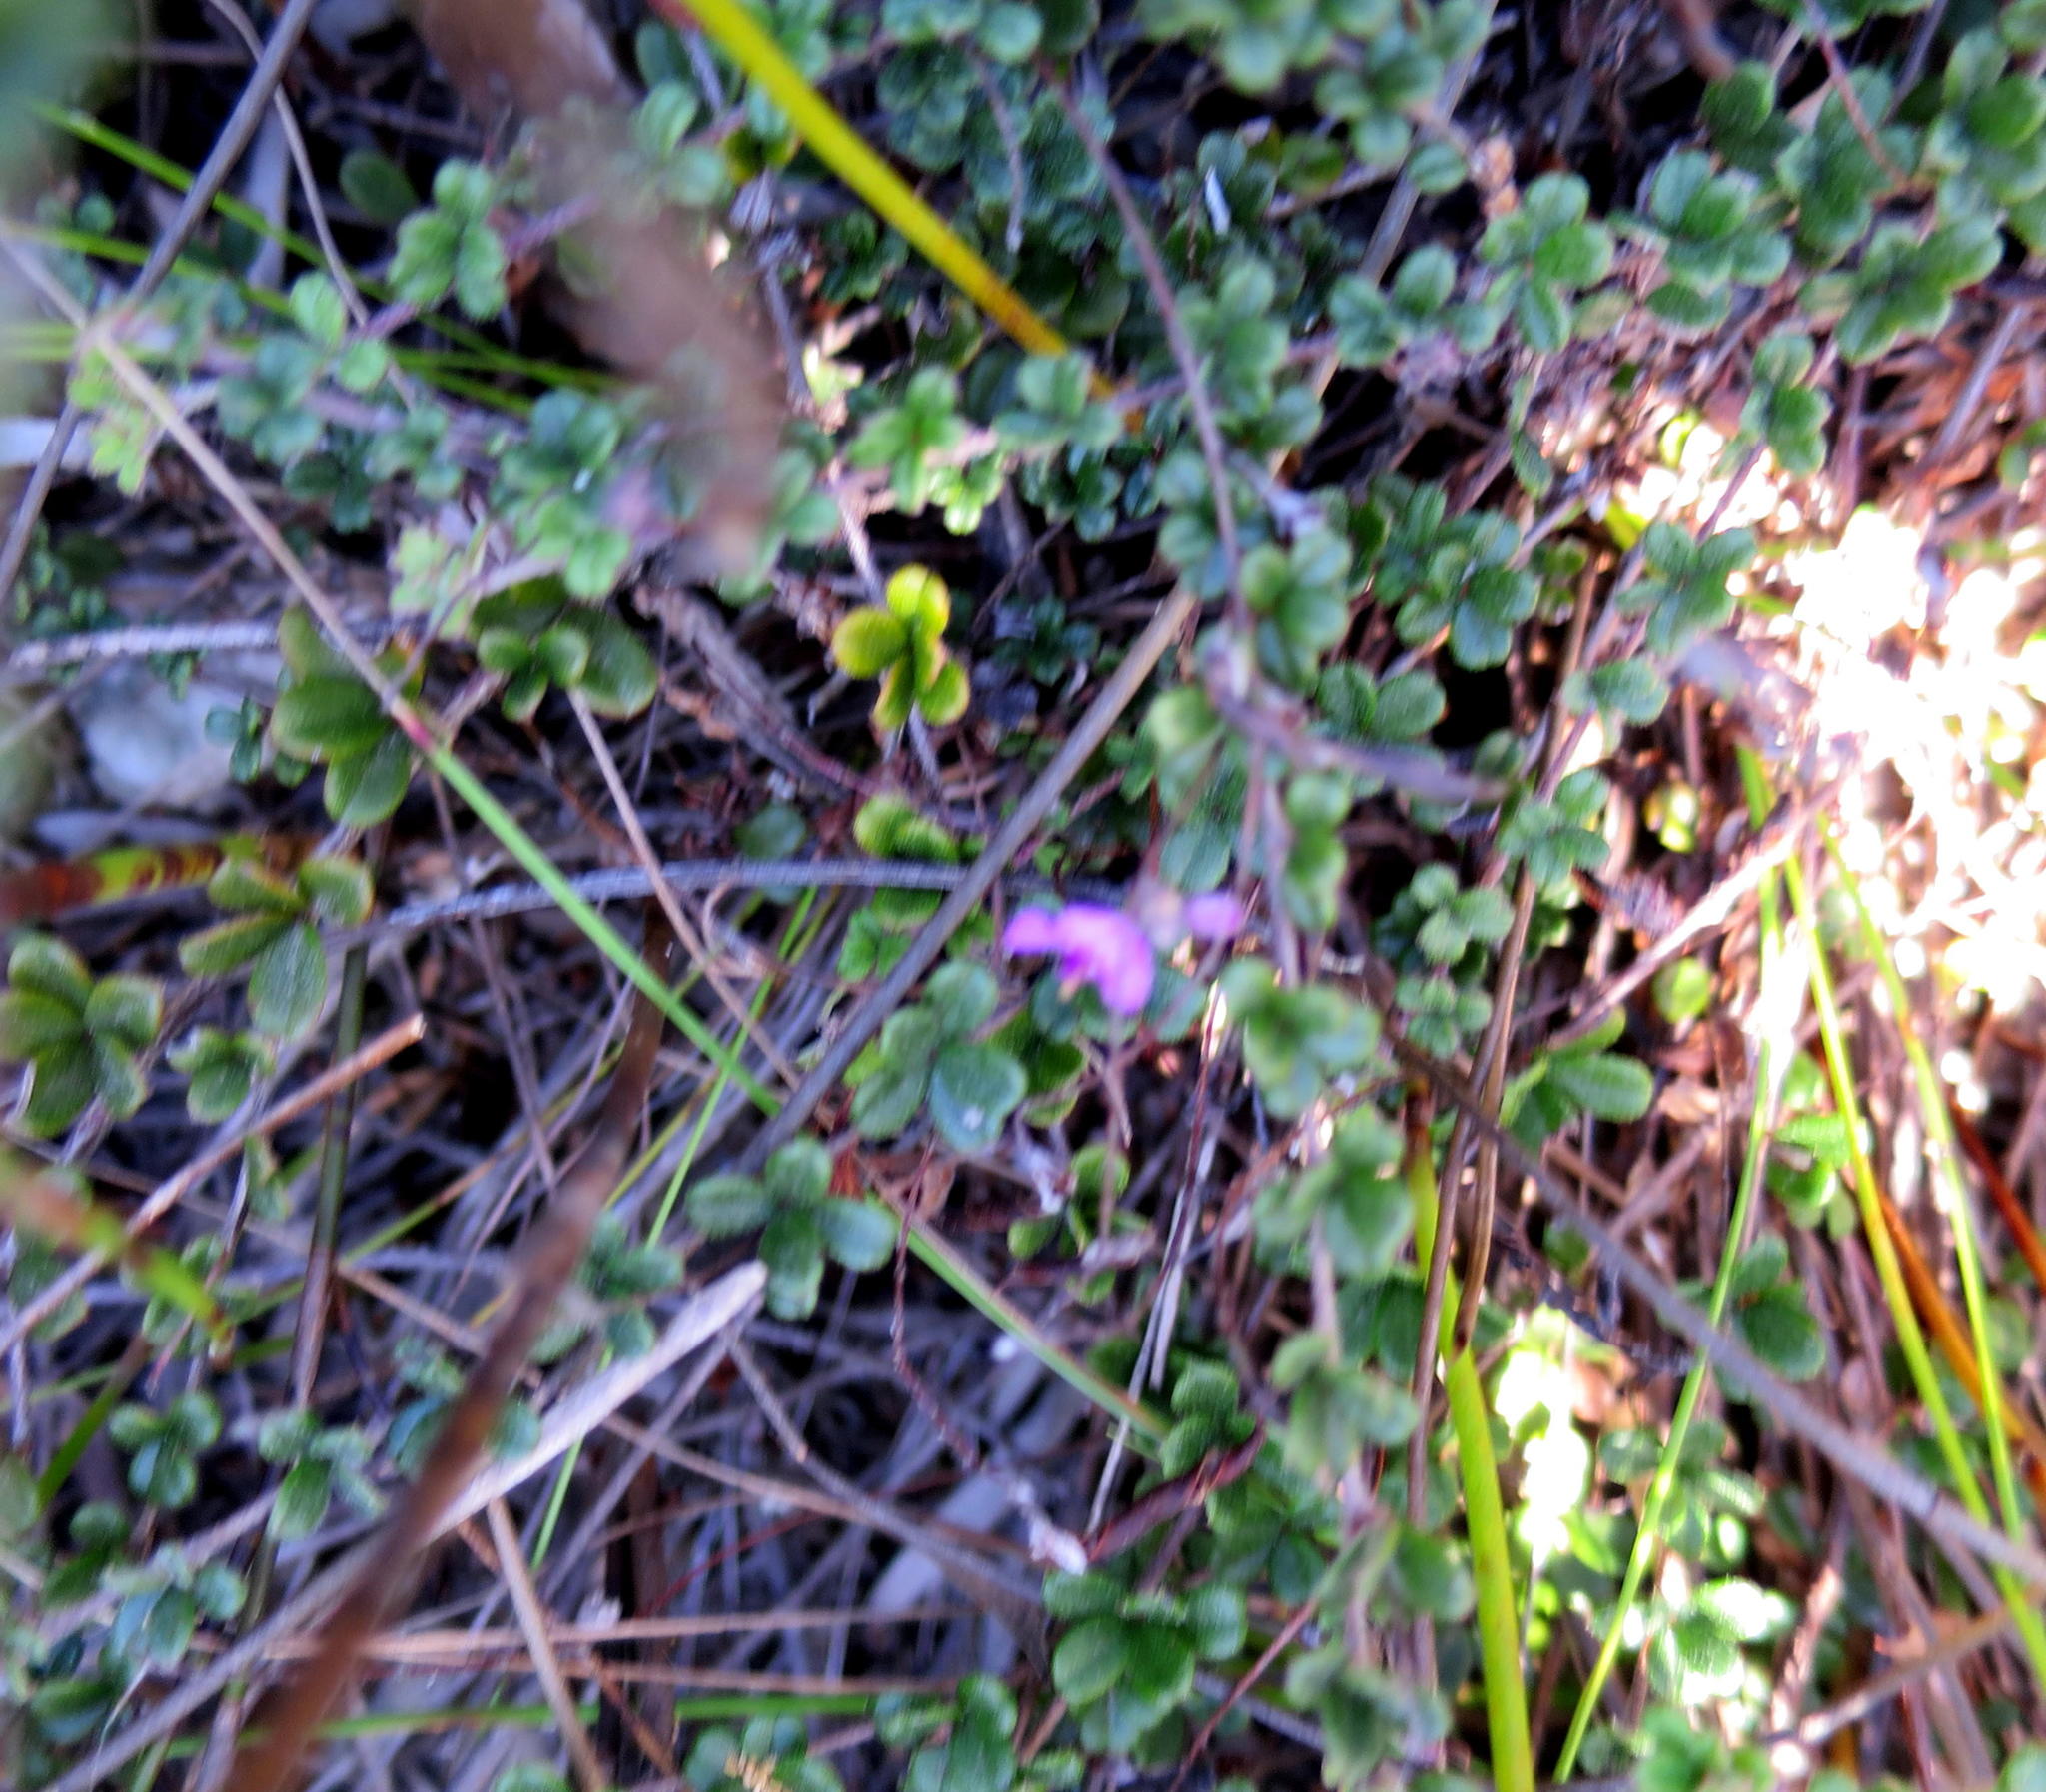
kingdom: Plantae
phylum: Tracheophyta
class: Magnoliopsida
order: Fabales
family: Fabaceae
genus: Indigofera
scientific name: Indigofera
